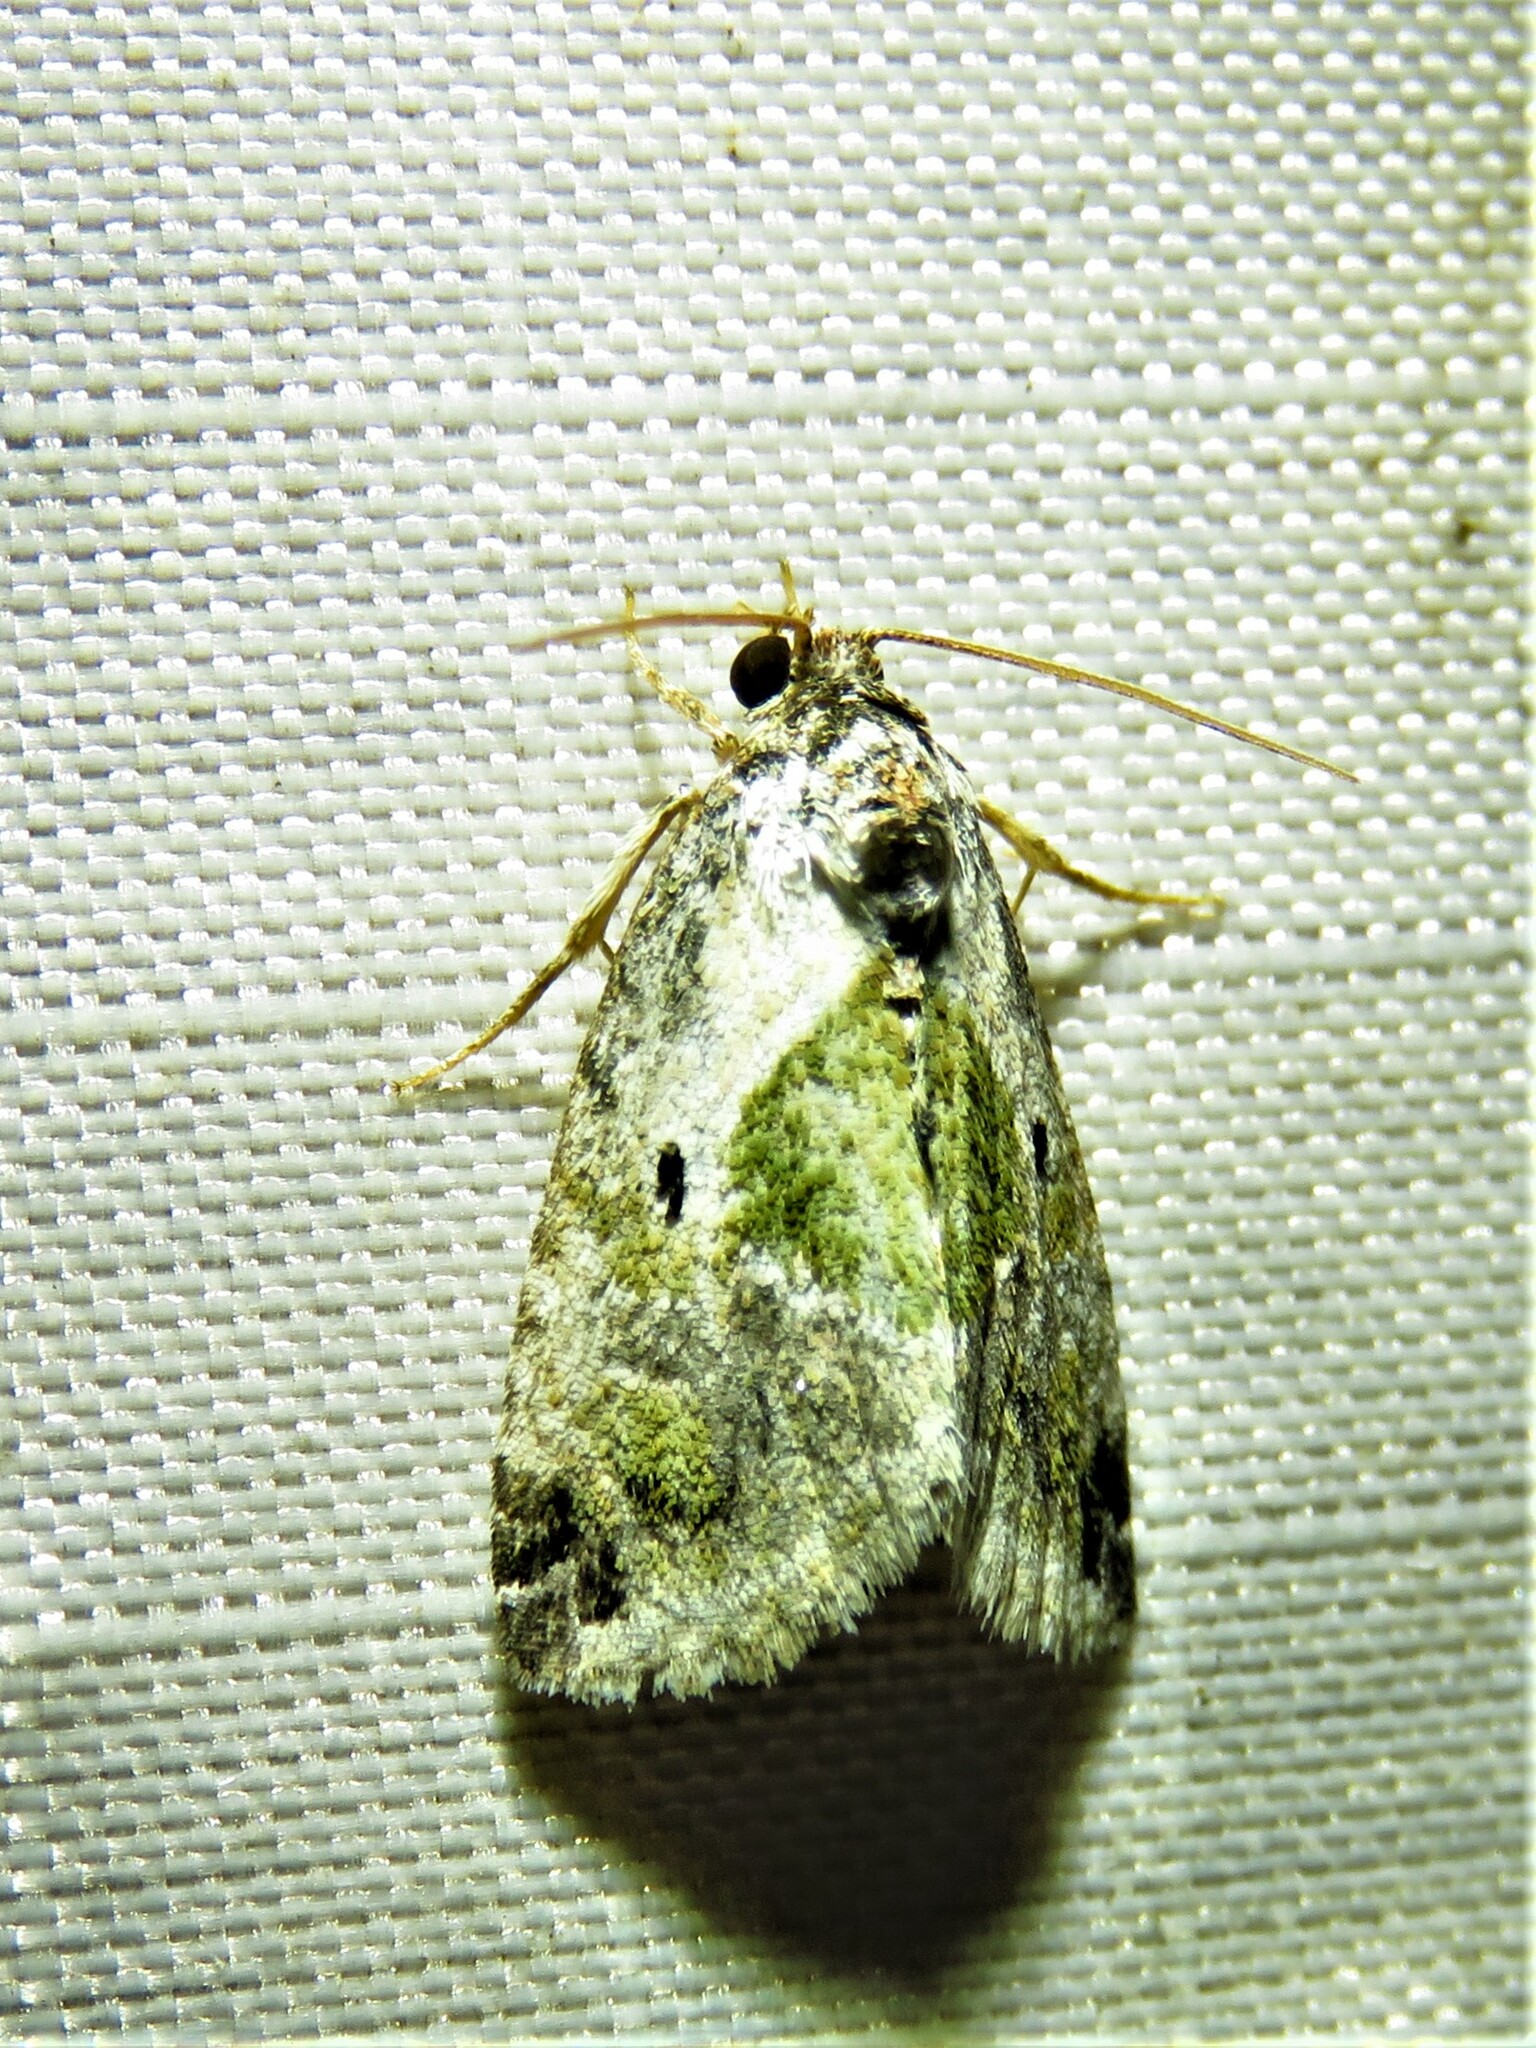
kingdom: Animalia
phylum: Arthropoda
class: Insecta
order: Lepidoptera
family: Noctuidae
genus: Maliattha
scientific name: Maliattha synochitis
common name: Black-dotted glyph
